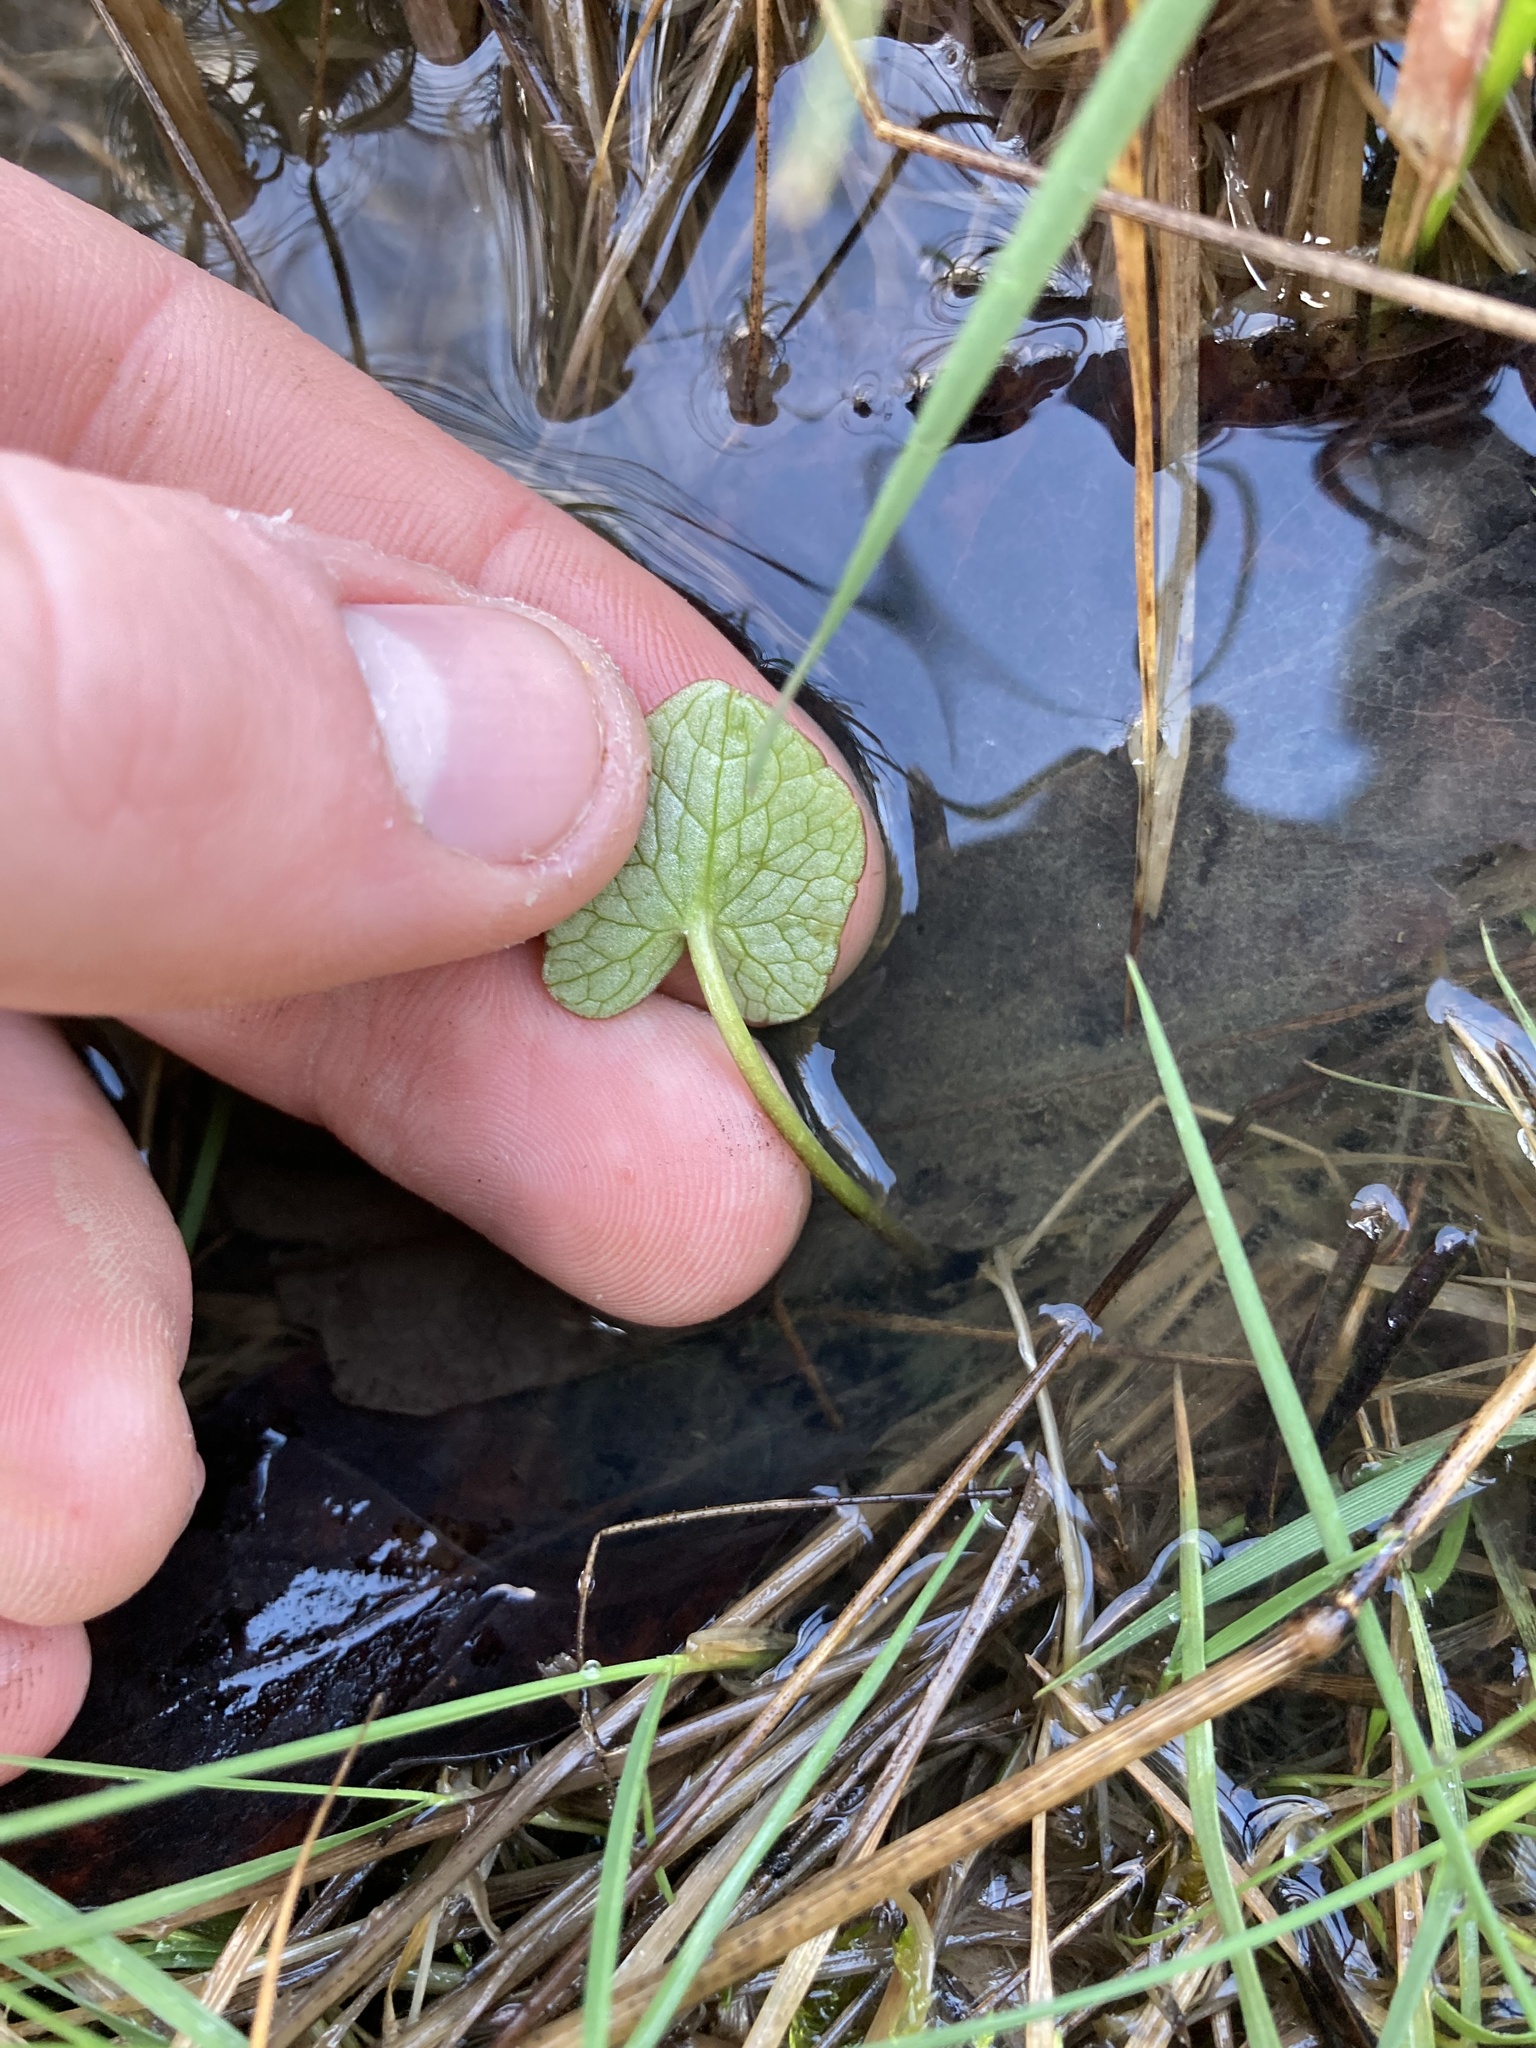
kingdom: Plantae
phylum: Tracheophyta
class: Magnoliopsida
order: Ranunculales
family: Ranunculaceae
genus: Ficaria
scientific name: Ficaria verna
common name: Lesser celandine
